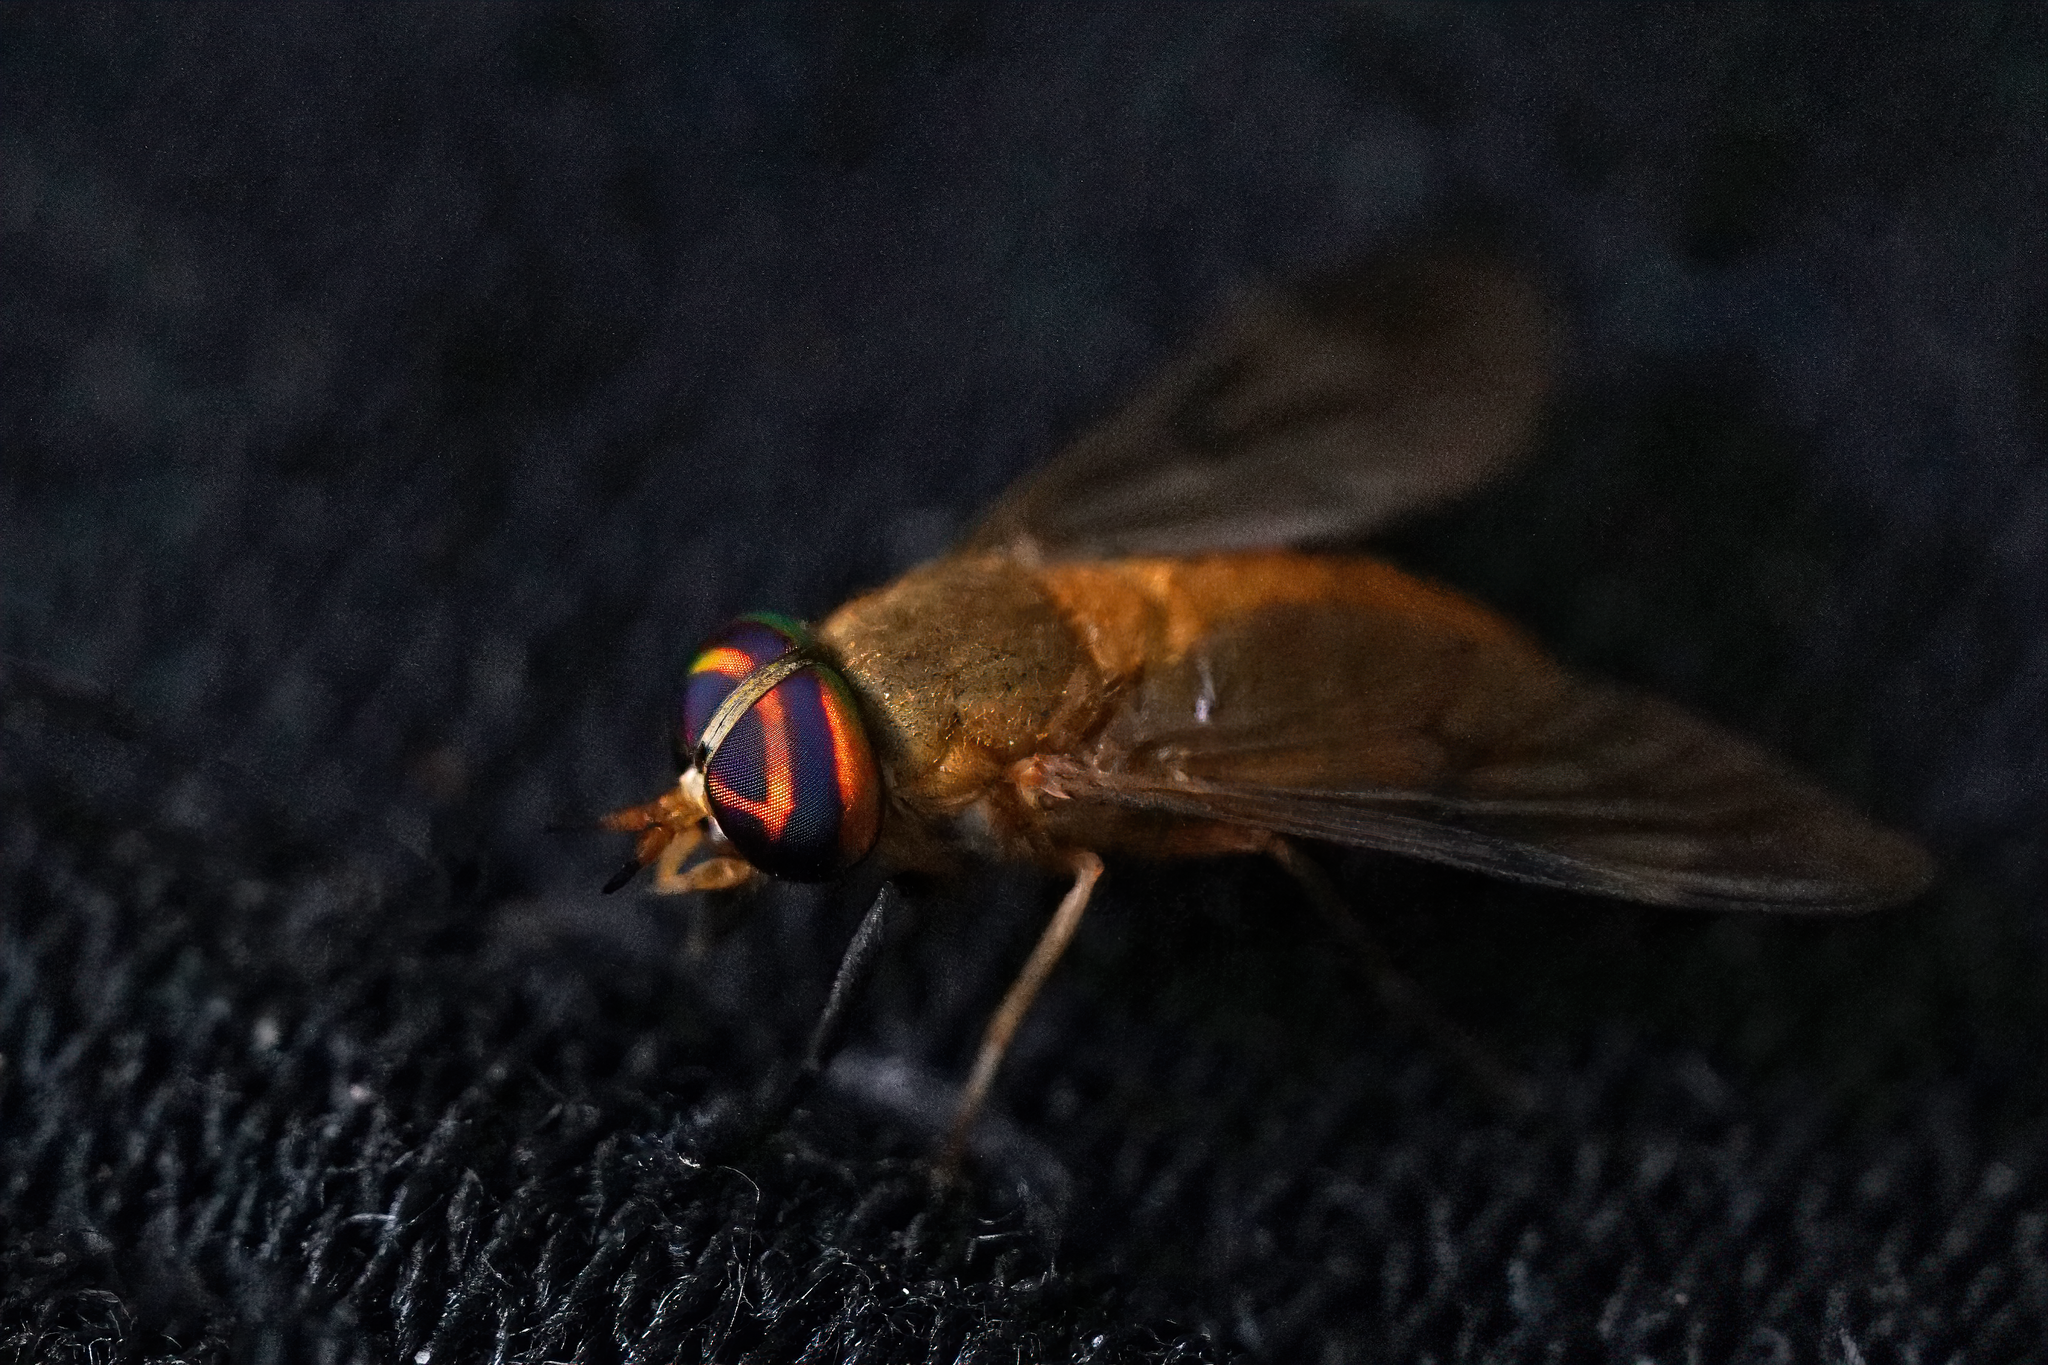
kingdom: Animalia
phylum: Arthropoda
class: Insecta
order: Diptera
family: Tabanidae
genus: Diachlorus
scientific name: Diachlorus ferrugatus
